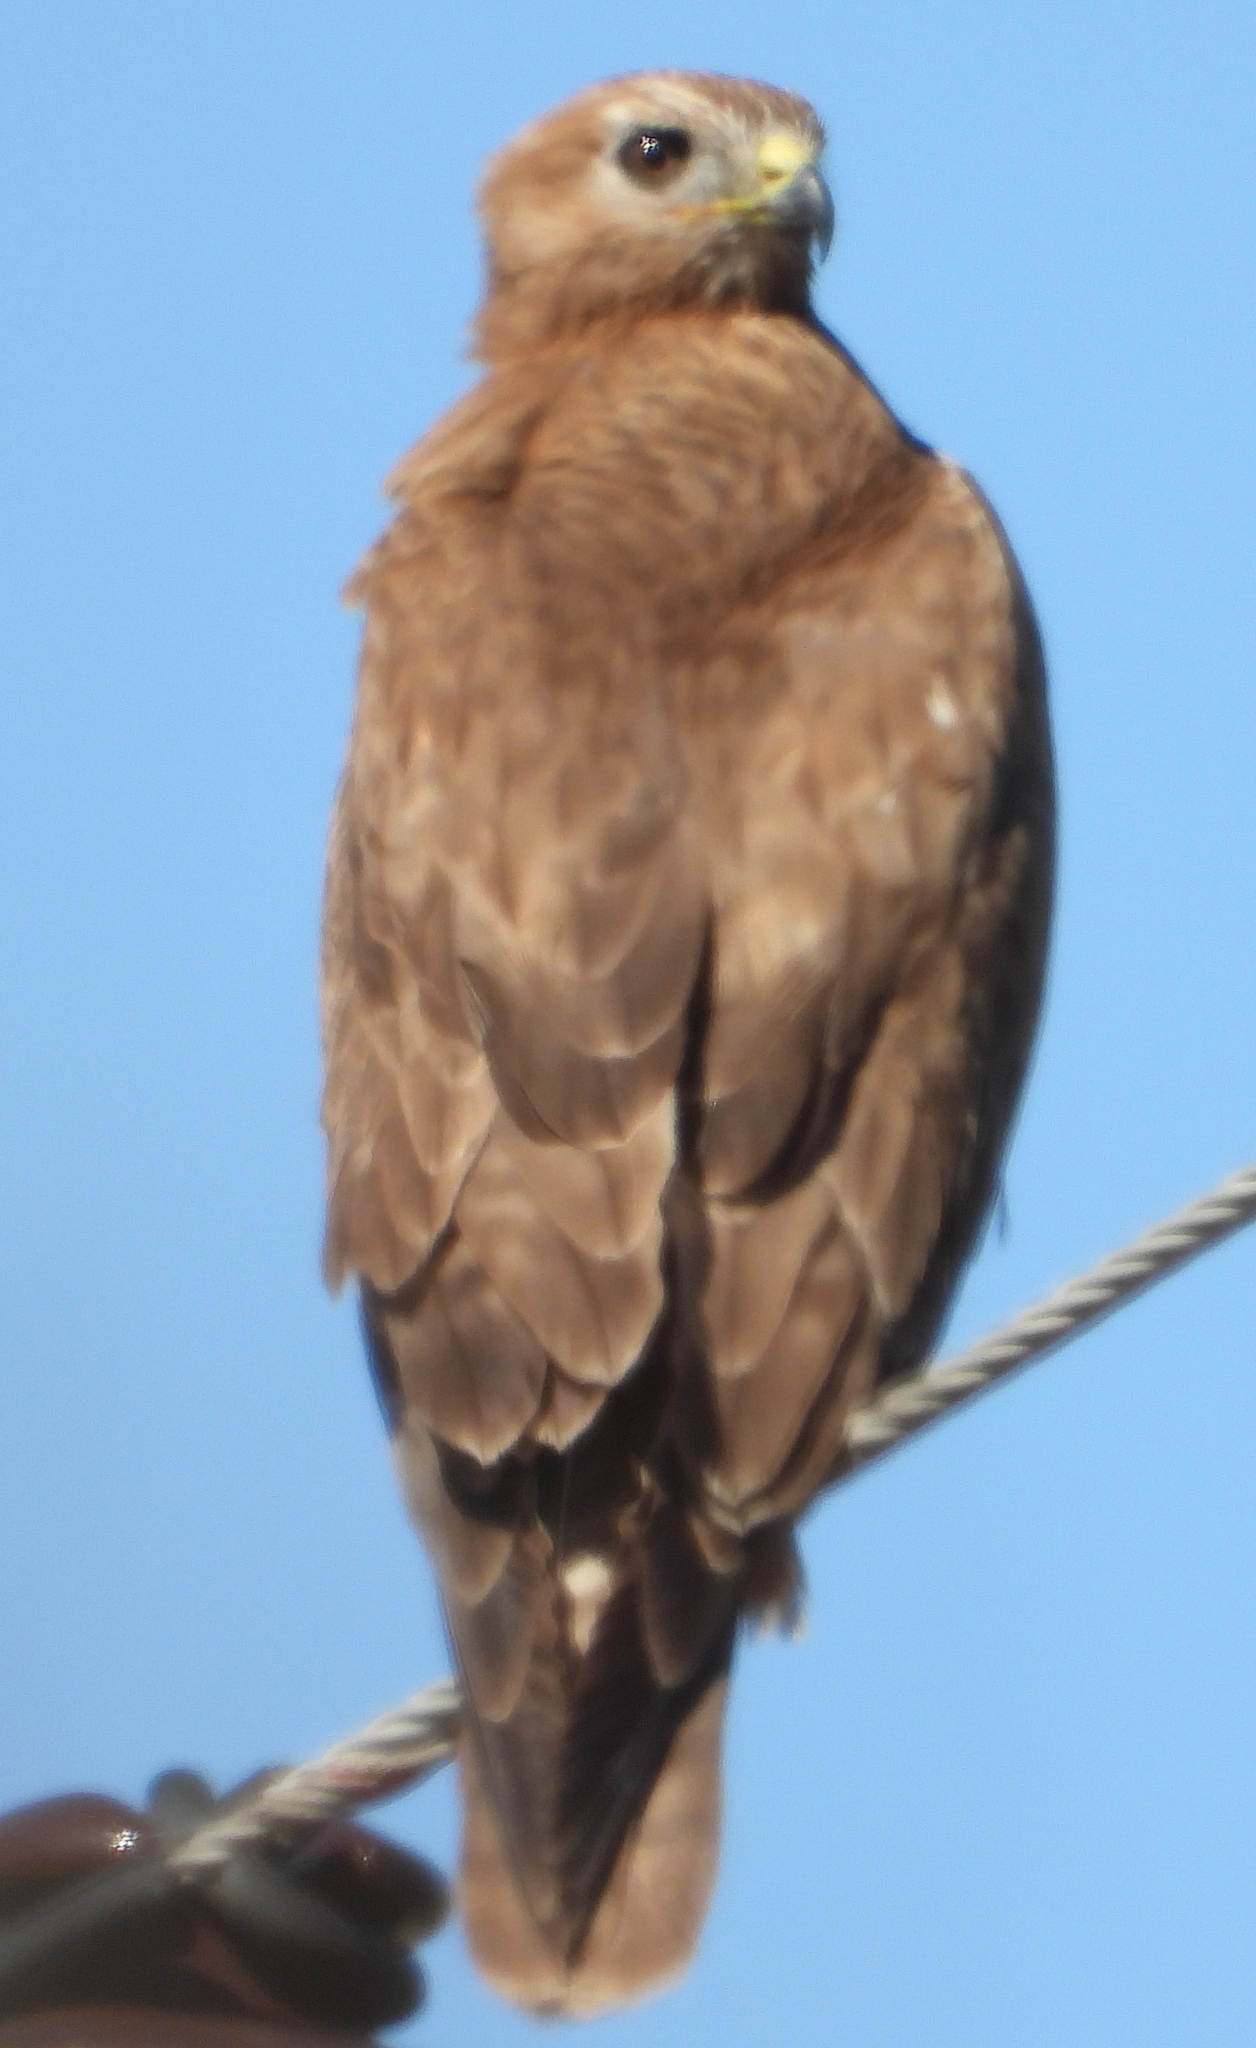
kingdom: Animalia
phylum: Chordata
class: Aves
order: Accipitriformes
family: Accipitridae
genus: Buteo
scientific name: Buteo buteo
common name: Common buzzard
